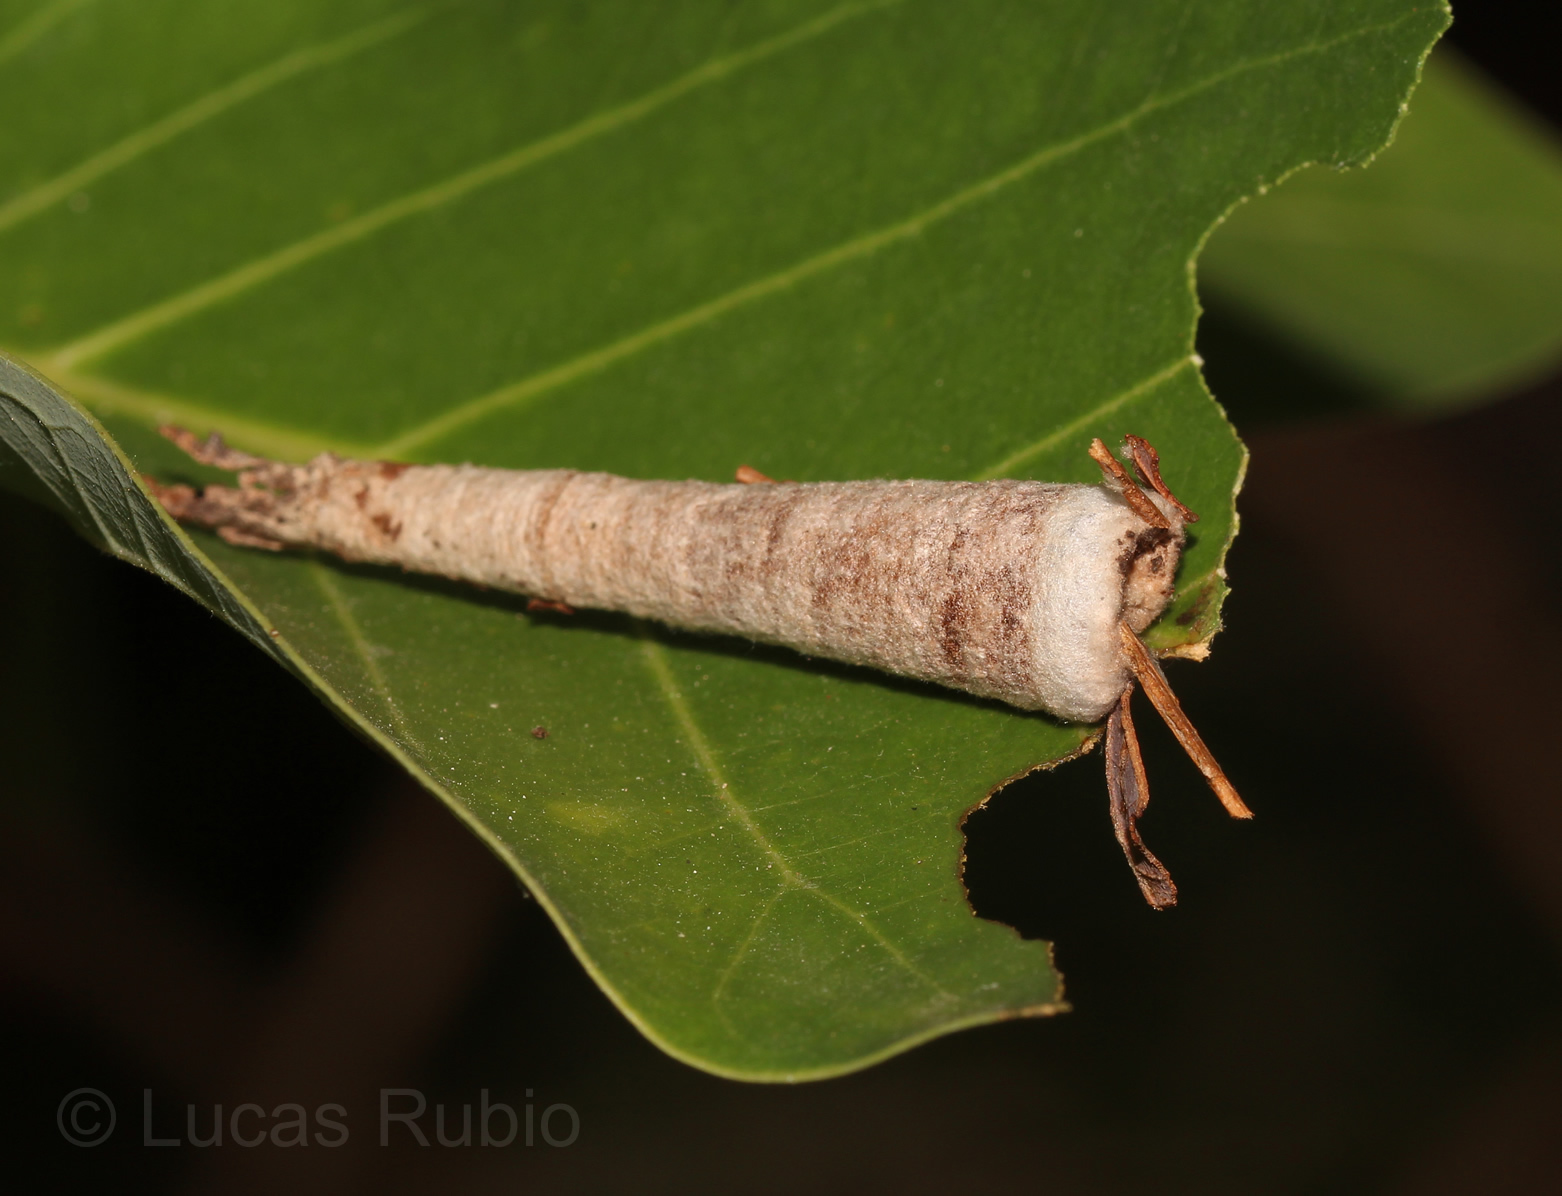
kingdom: Animalia
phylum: Arthropoda
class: Insecta
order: Lepidoptera
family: Psychidae
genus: Oiketicus
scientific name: Oiketicus geyeri
